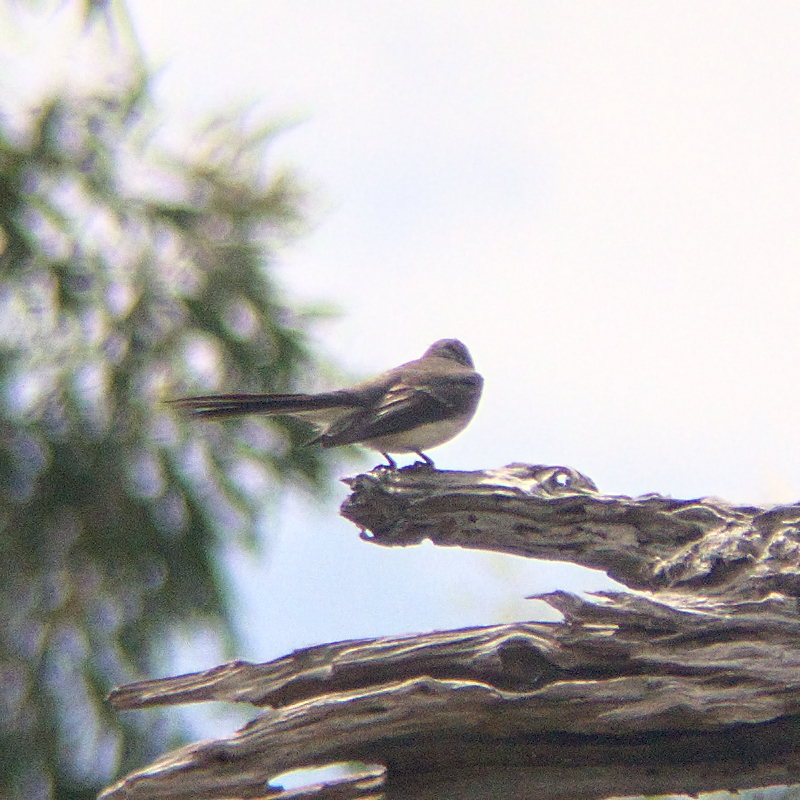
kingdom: Animalia
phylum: Chordata
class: Aves
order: Passeriformes
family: Rhipiduridae
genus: Rhipidura
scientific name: Rhipidura albiscapa
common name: Grey fantail
